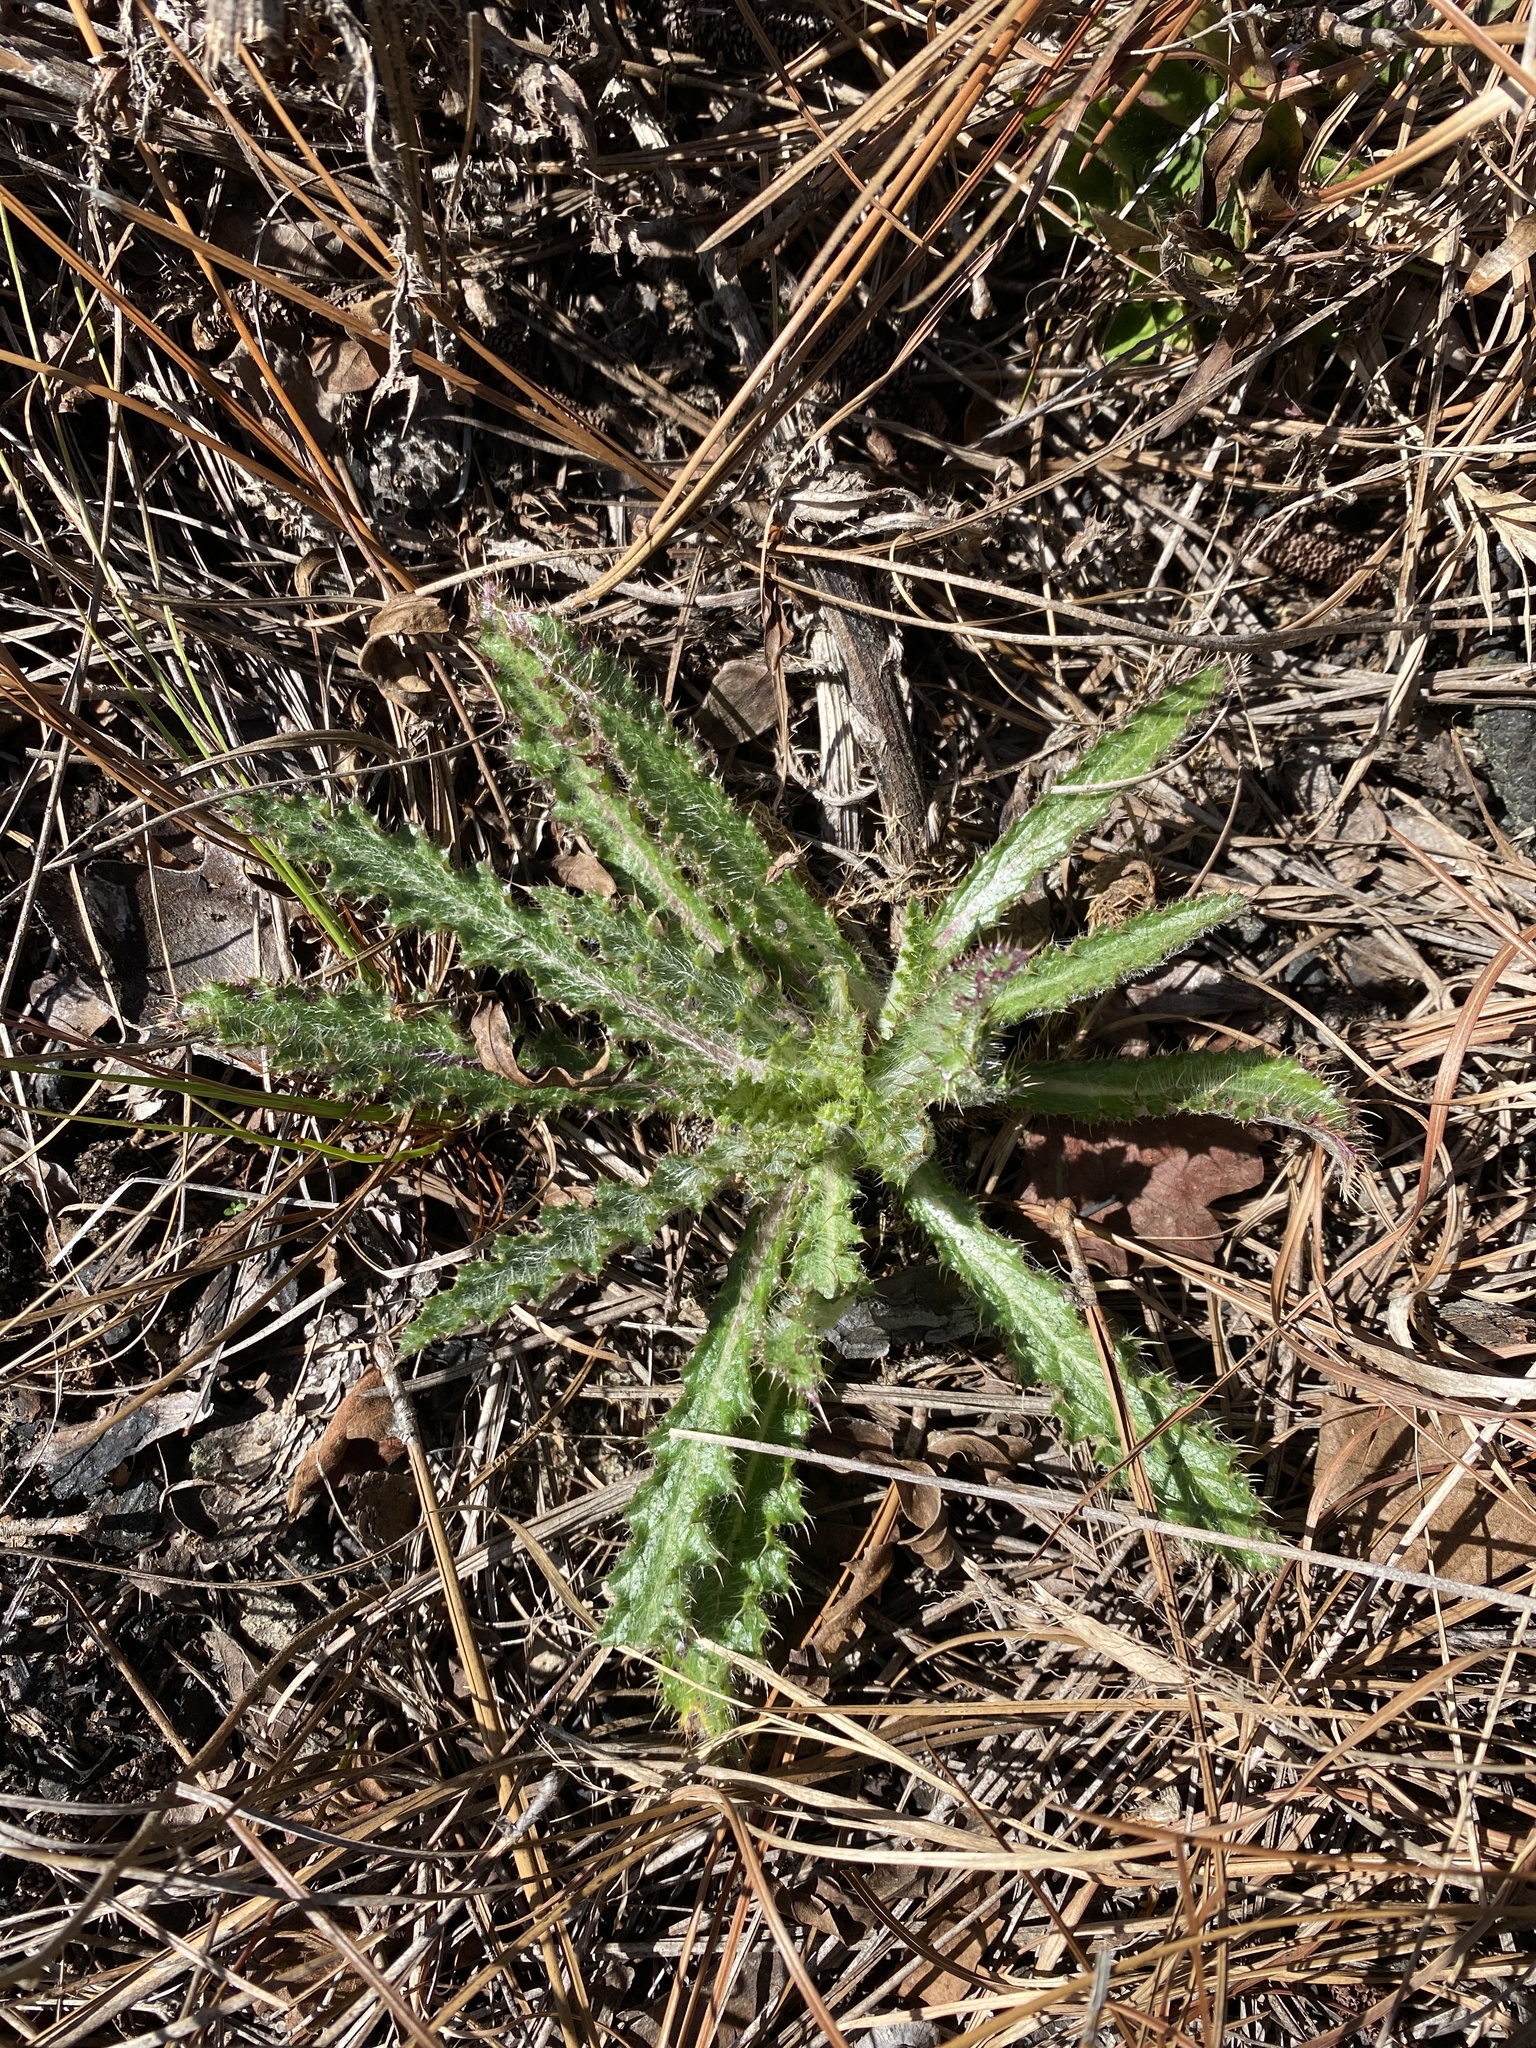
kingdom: Plantae
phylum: Tracheophyta
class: Magnoliopsida
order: Asterales
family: Asteraceae
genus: Cirsium
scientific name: Cirsium repandum
